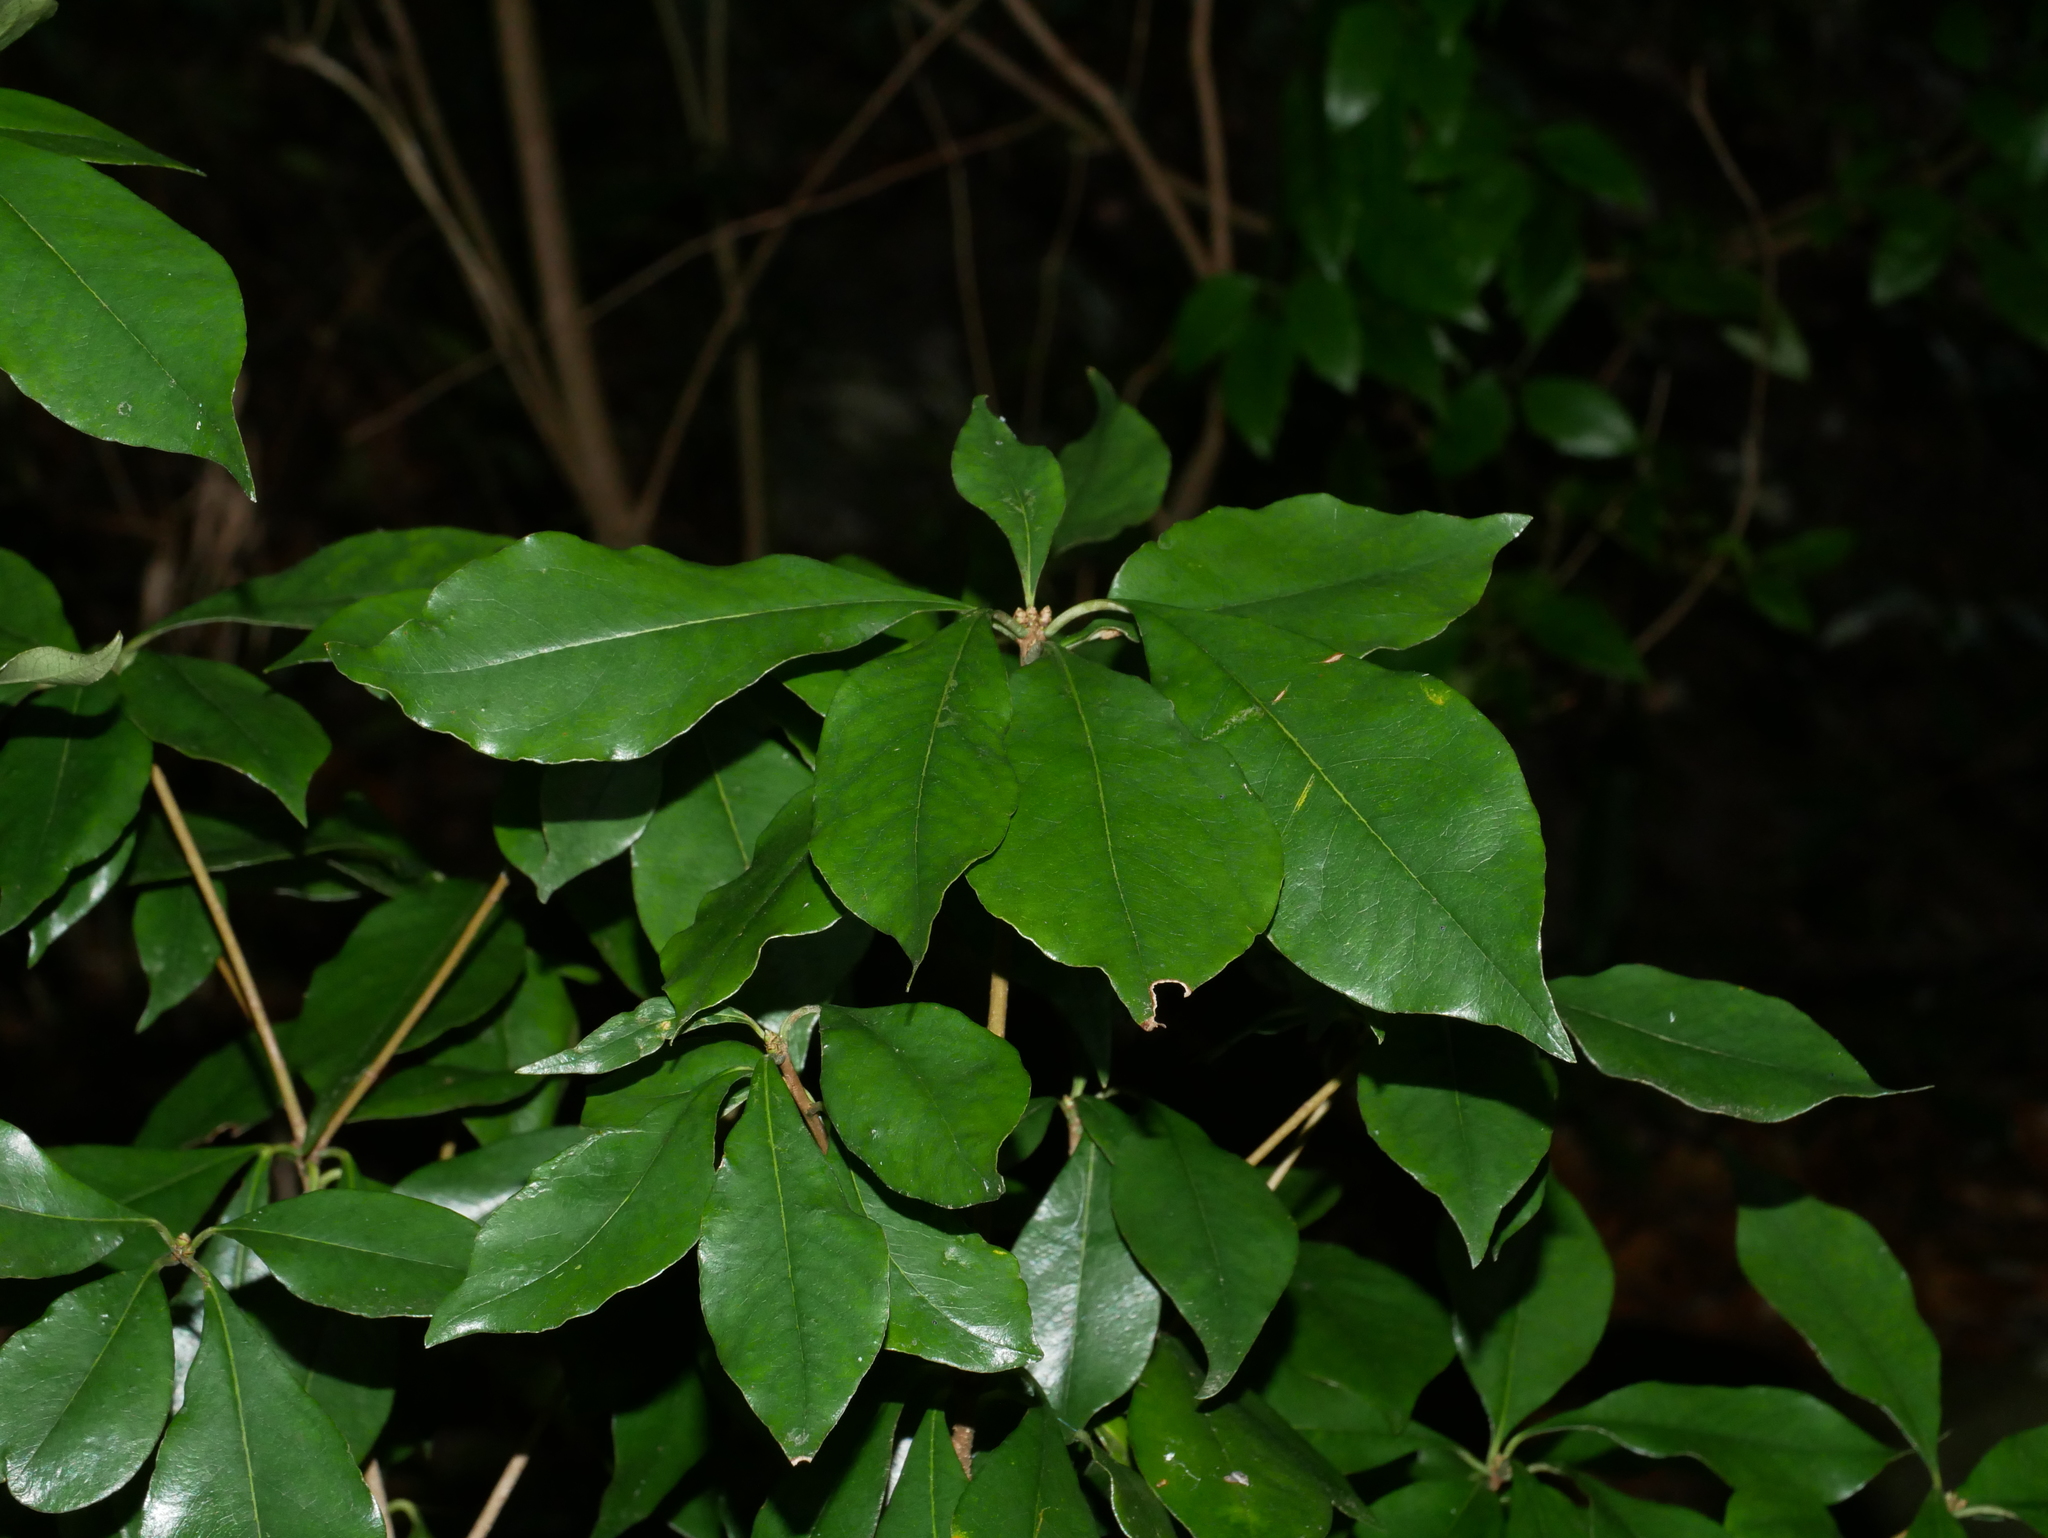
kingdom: Plantae
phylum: Tracheophyta
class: Magnoliopsida
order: Apiales
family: Pittosporaceae
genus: Pittosporum
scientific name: Pittosporum illicioides
